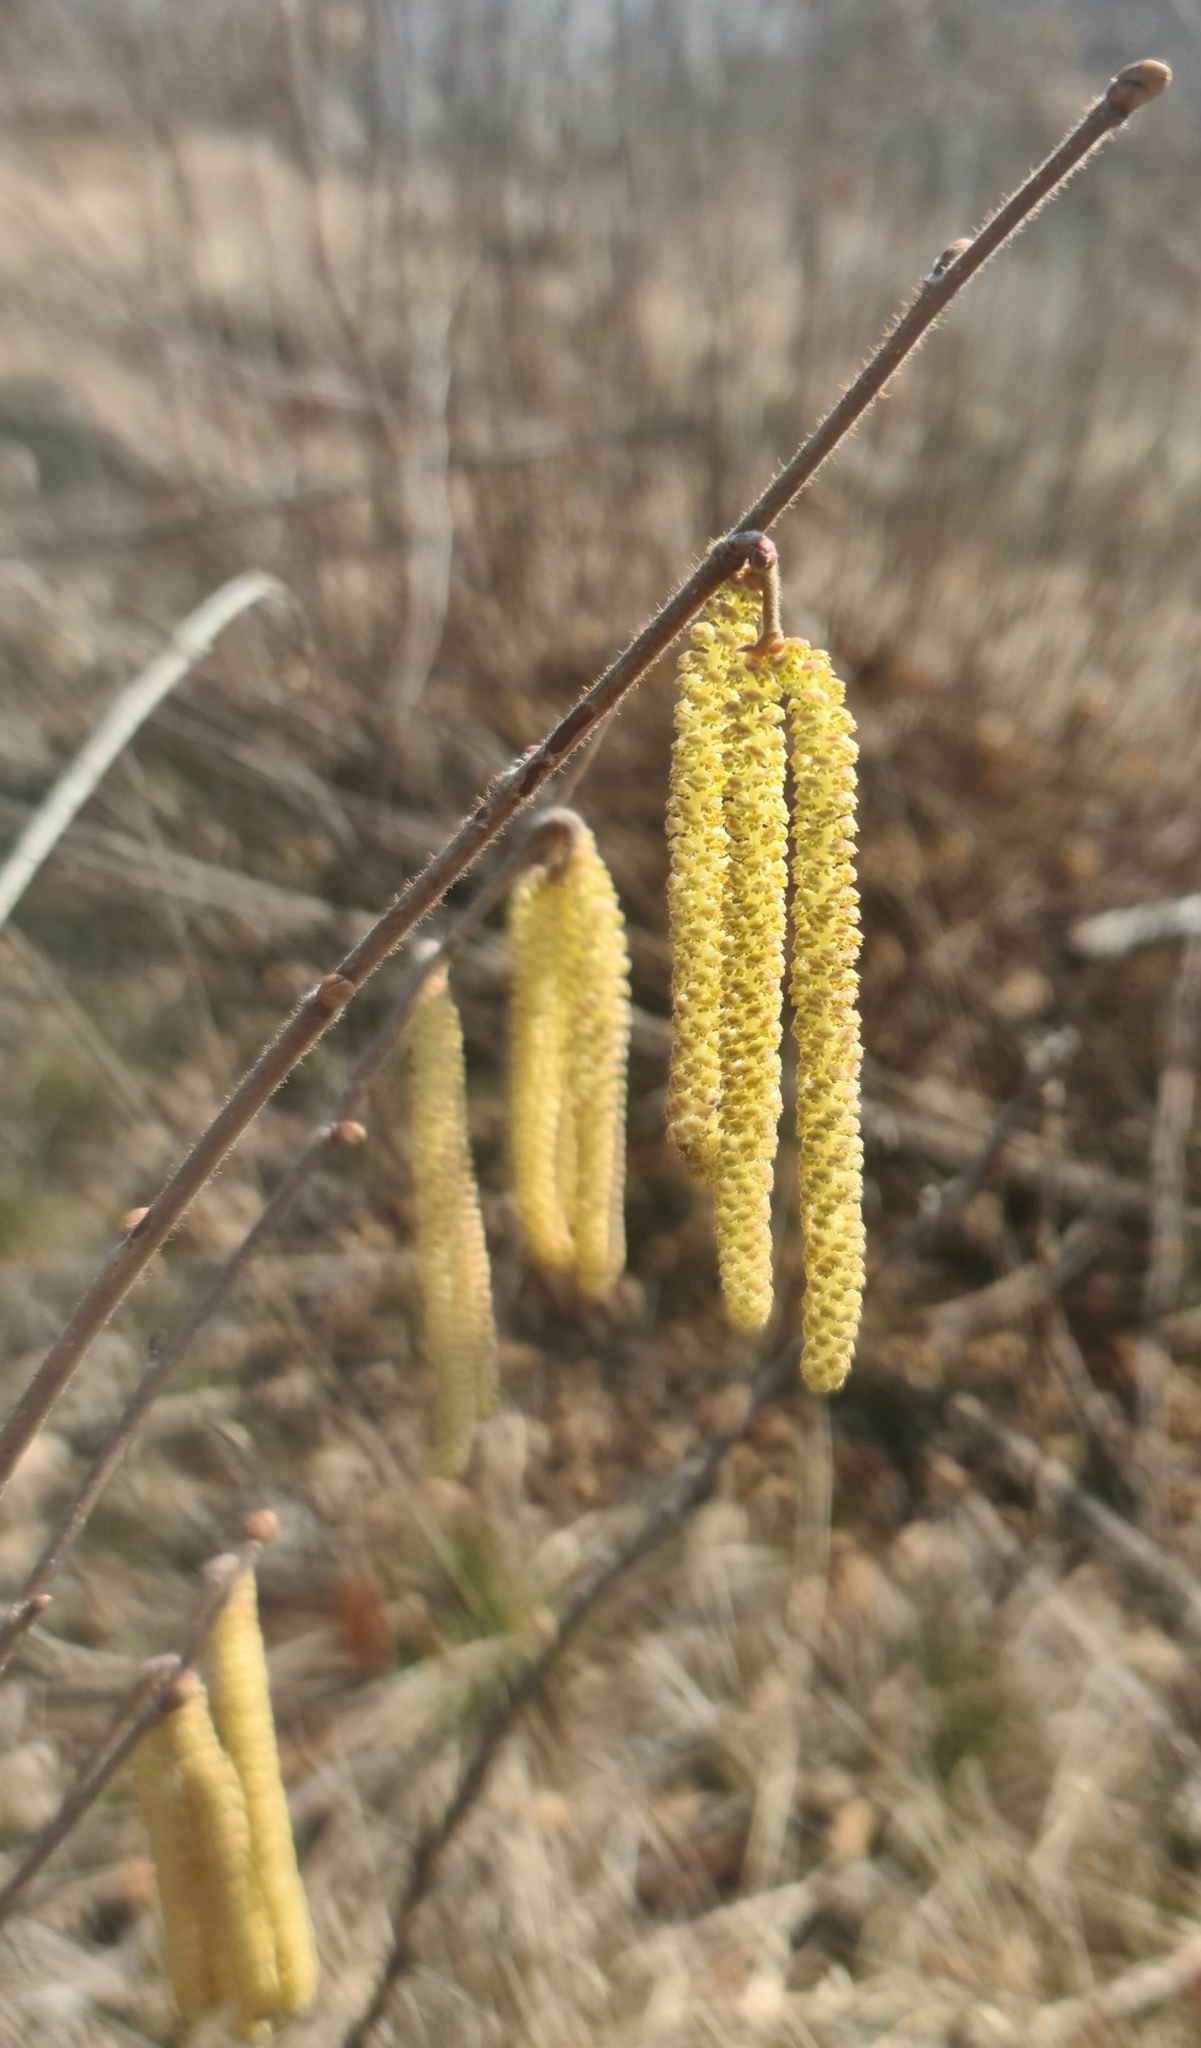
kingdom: Plantae
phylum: Tracheophyta
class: Magnoliopsida
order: Fagales
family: Betulaceae
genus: Corylus
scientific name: Corylus avellana
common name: European hazel
